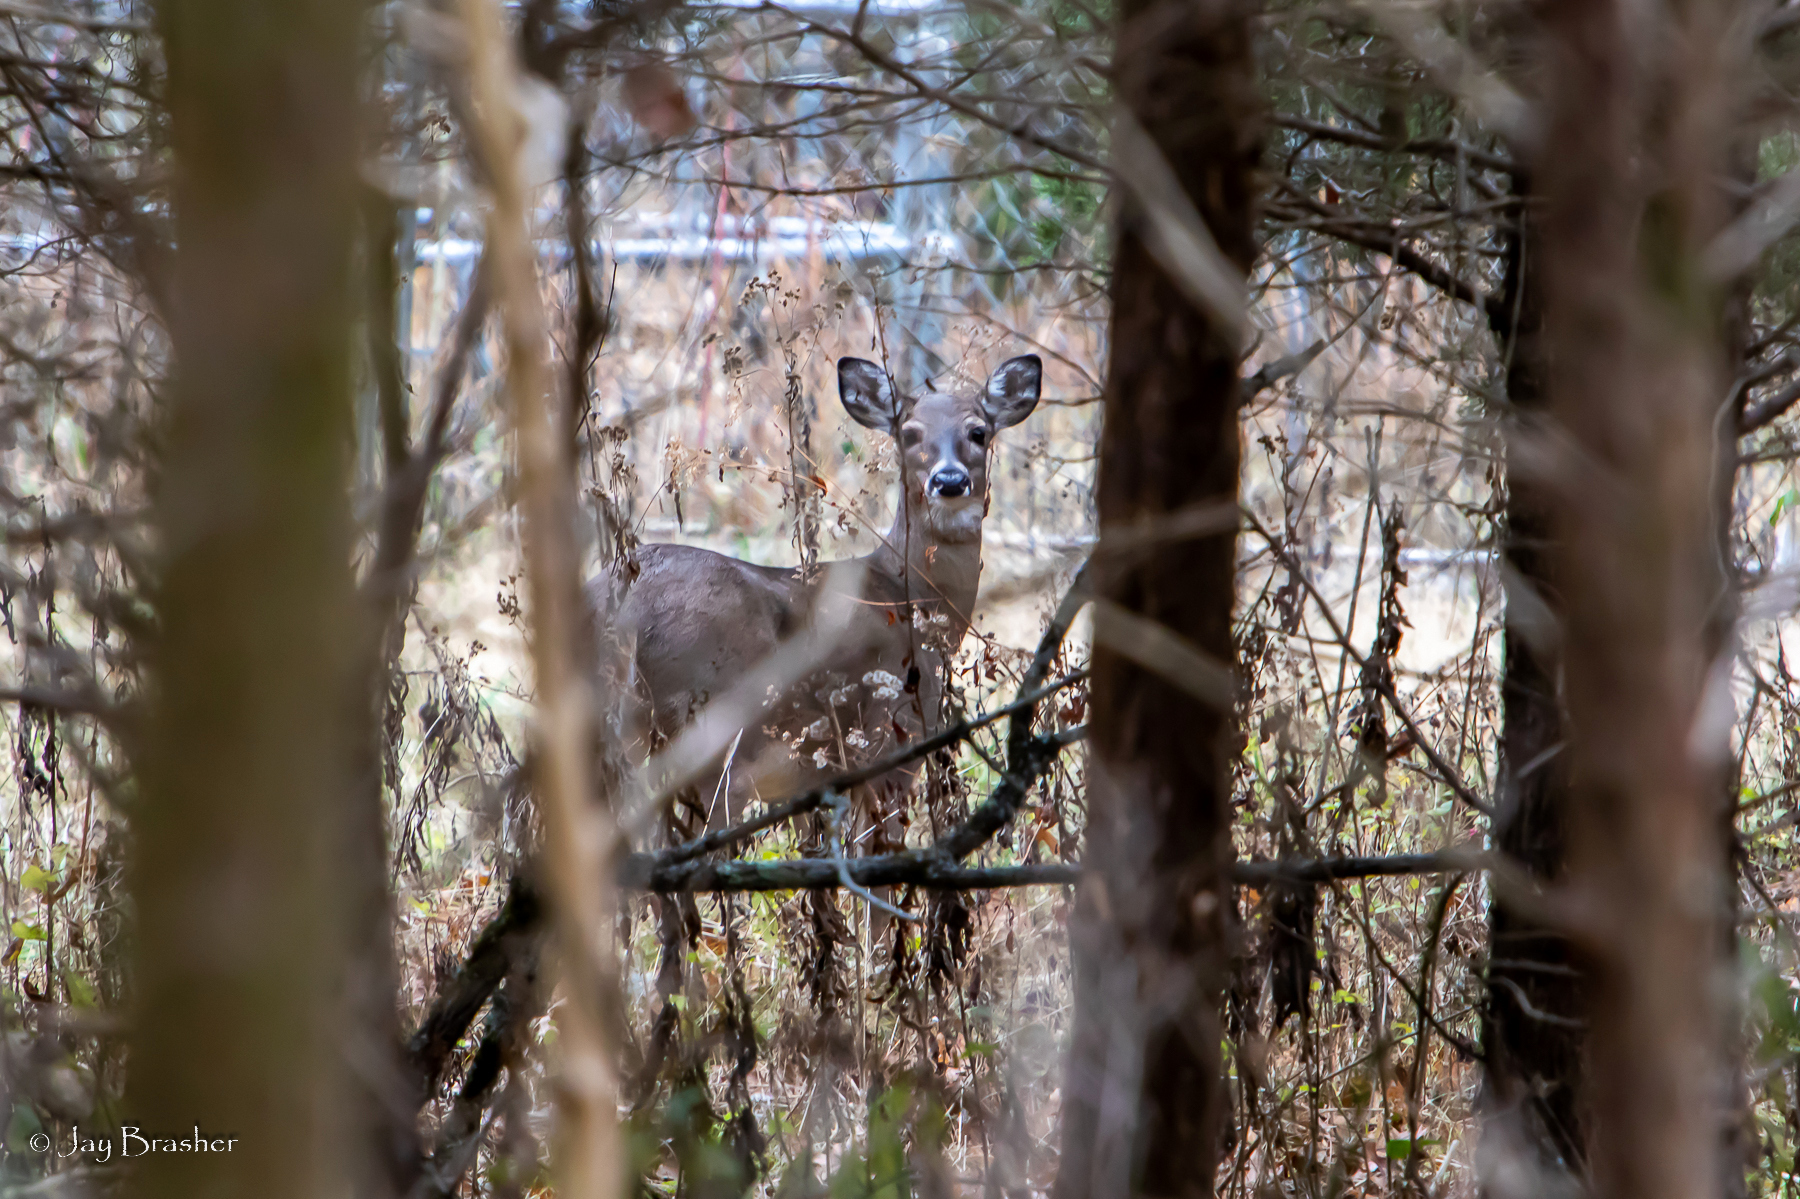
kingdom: Animalia
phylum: Chordata
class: Mammalia
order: Artiodactyla
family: Cervidae
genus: Odocoileus
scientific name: Odocoileus virginianus
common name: White-tailed deer
